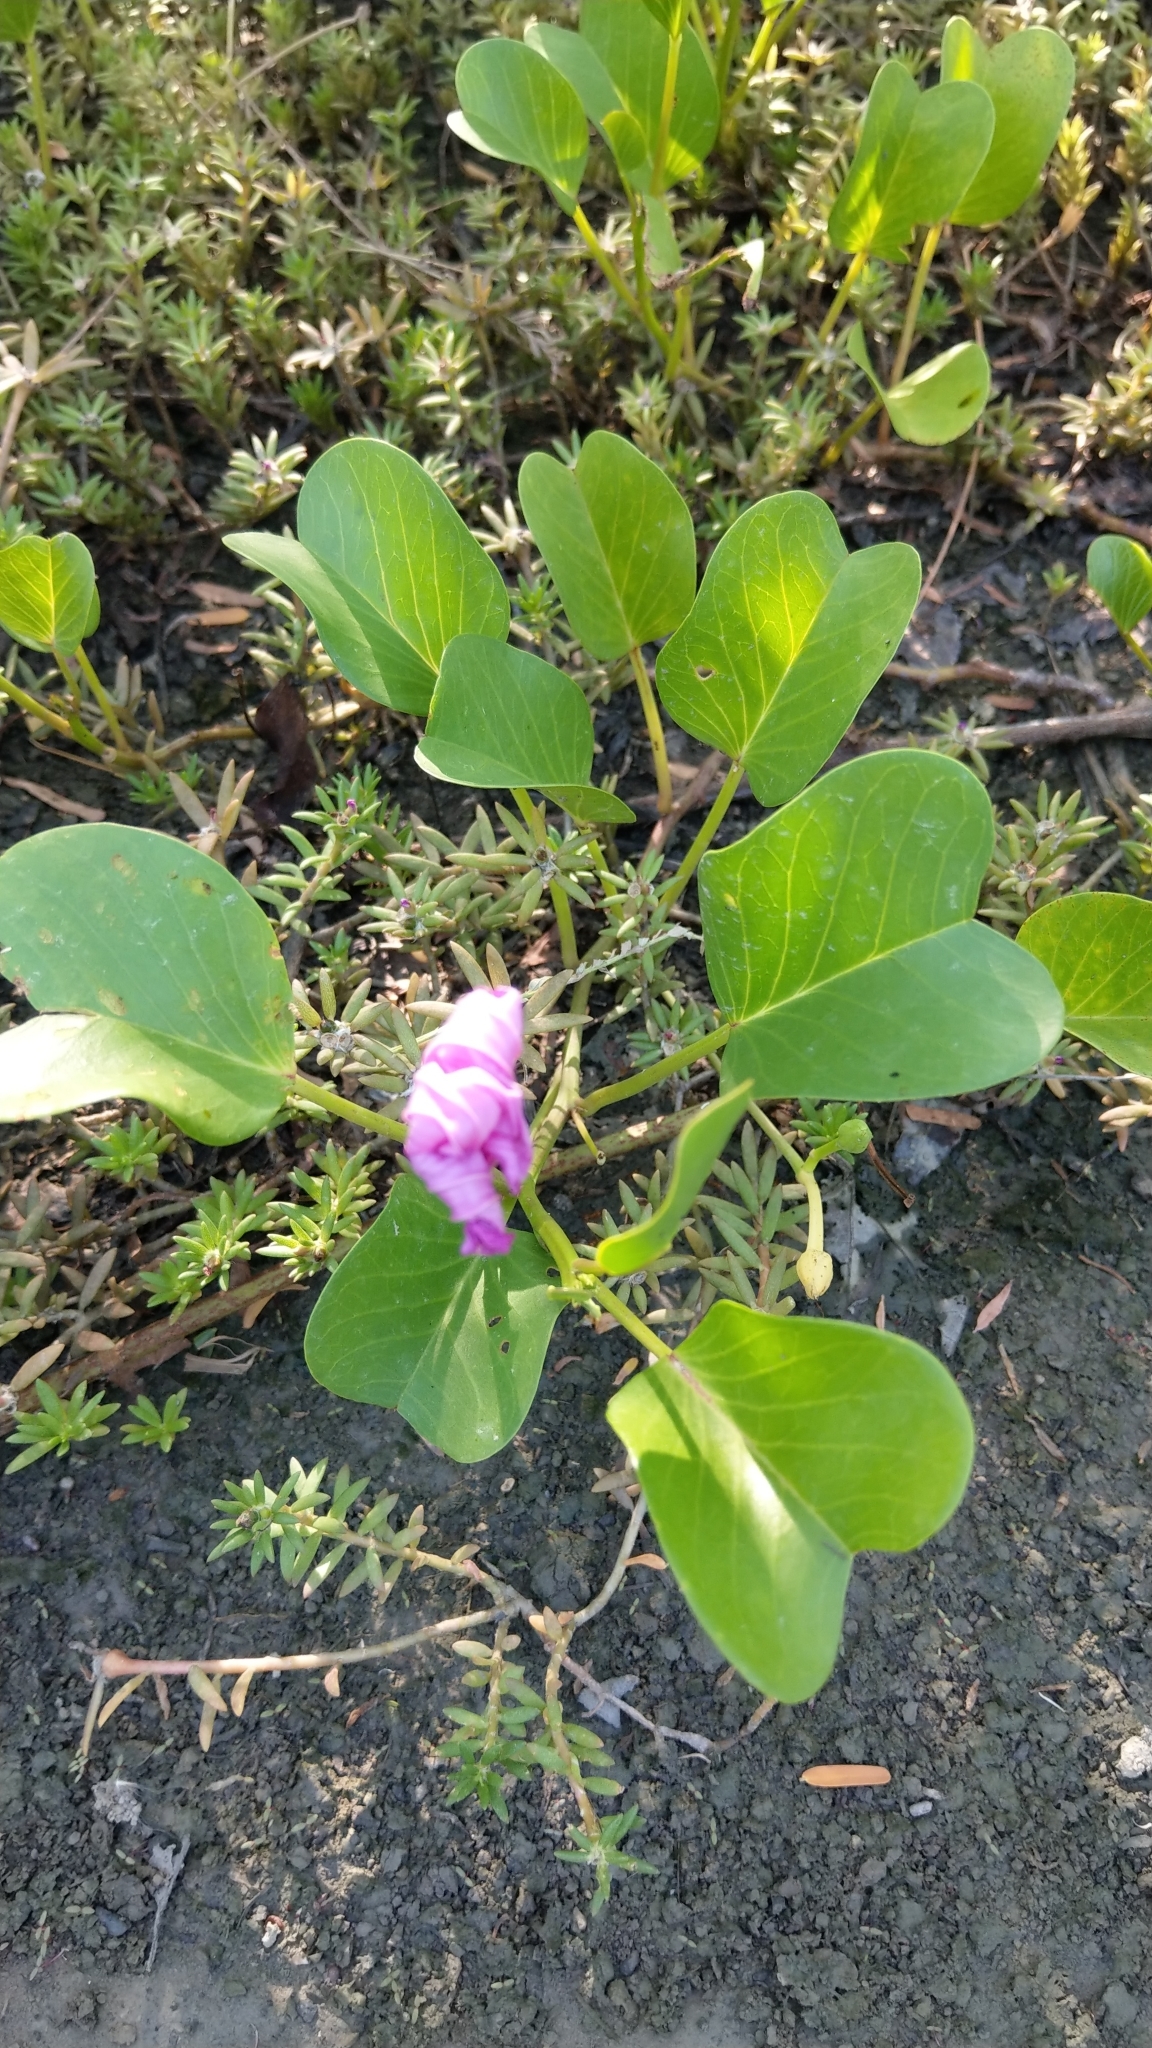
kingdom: Plantae
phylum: Tracheophyta
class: Magnoliopsida
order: Solanales
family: Convolvulaceae
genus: Ipomoea
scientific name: Ipomoea pes-caprae
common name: Beach morning glory
